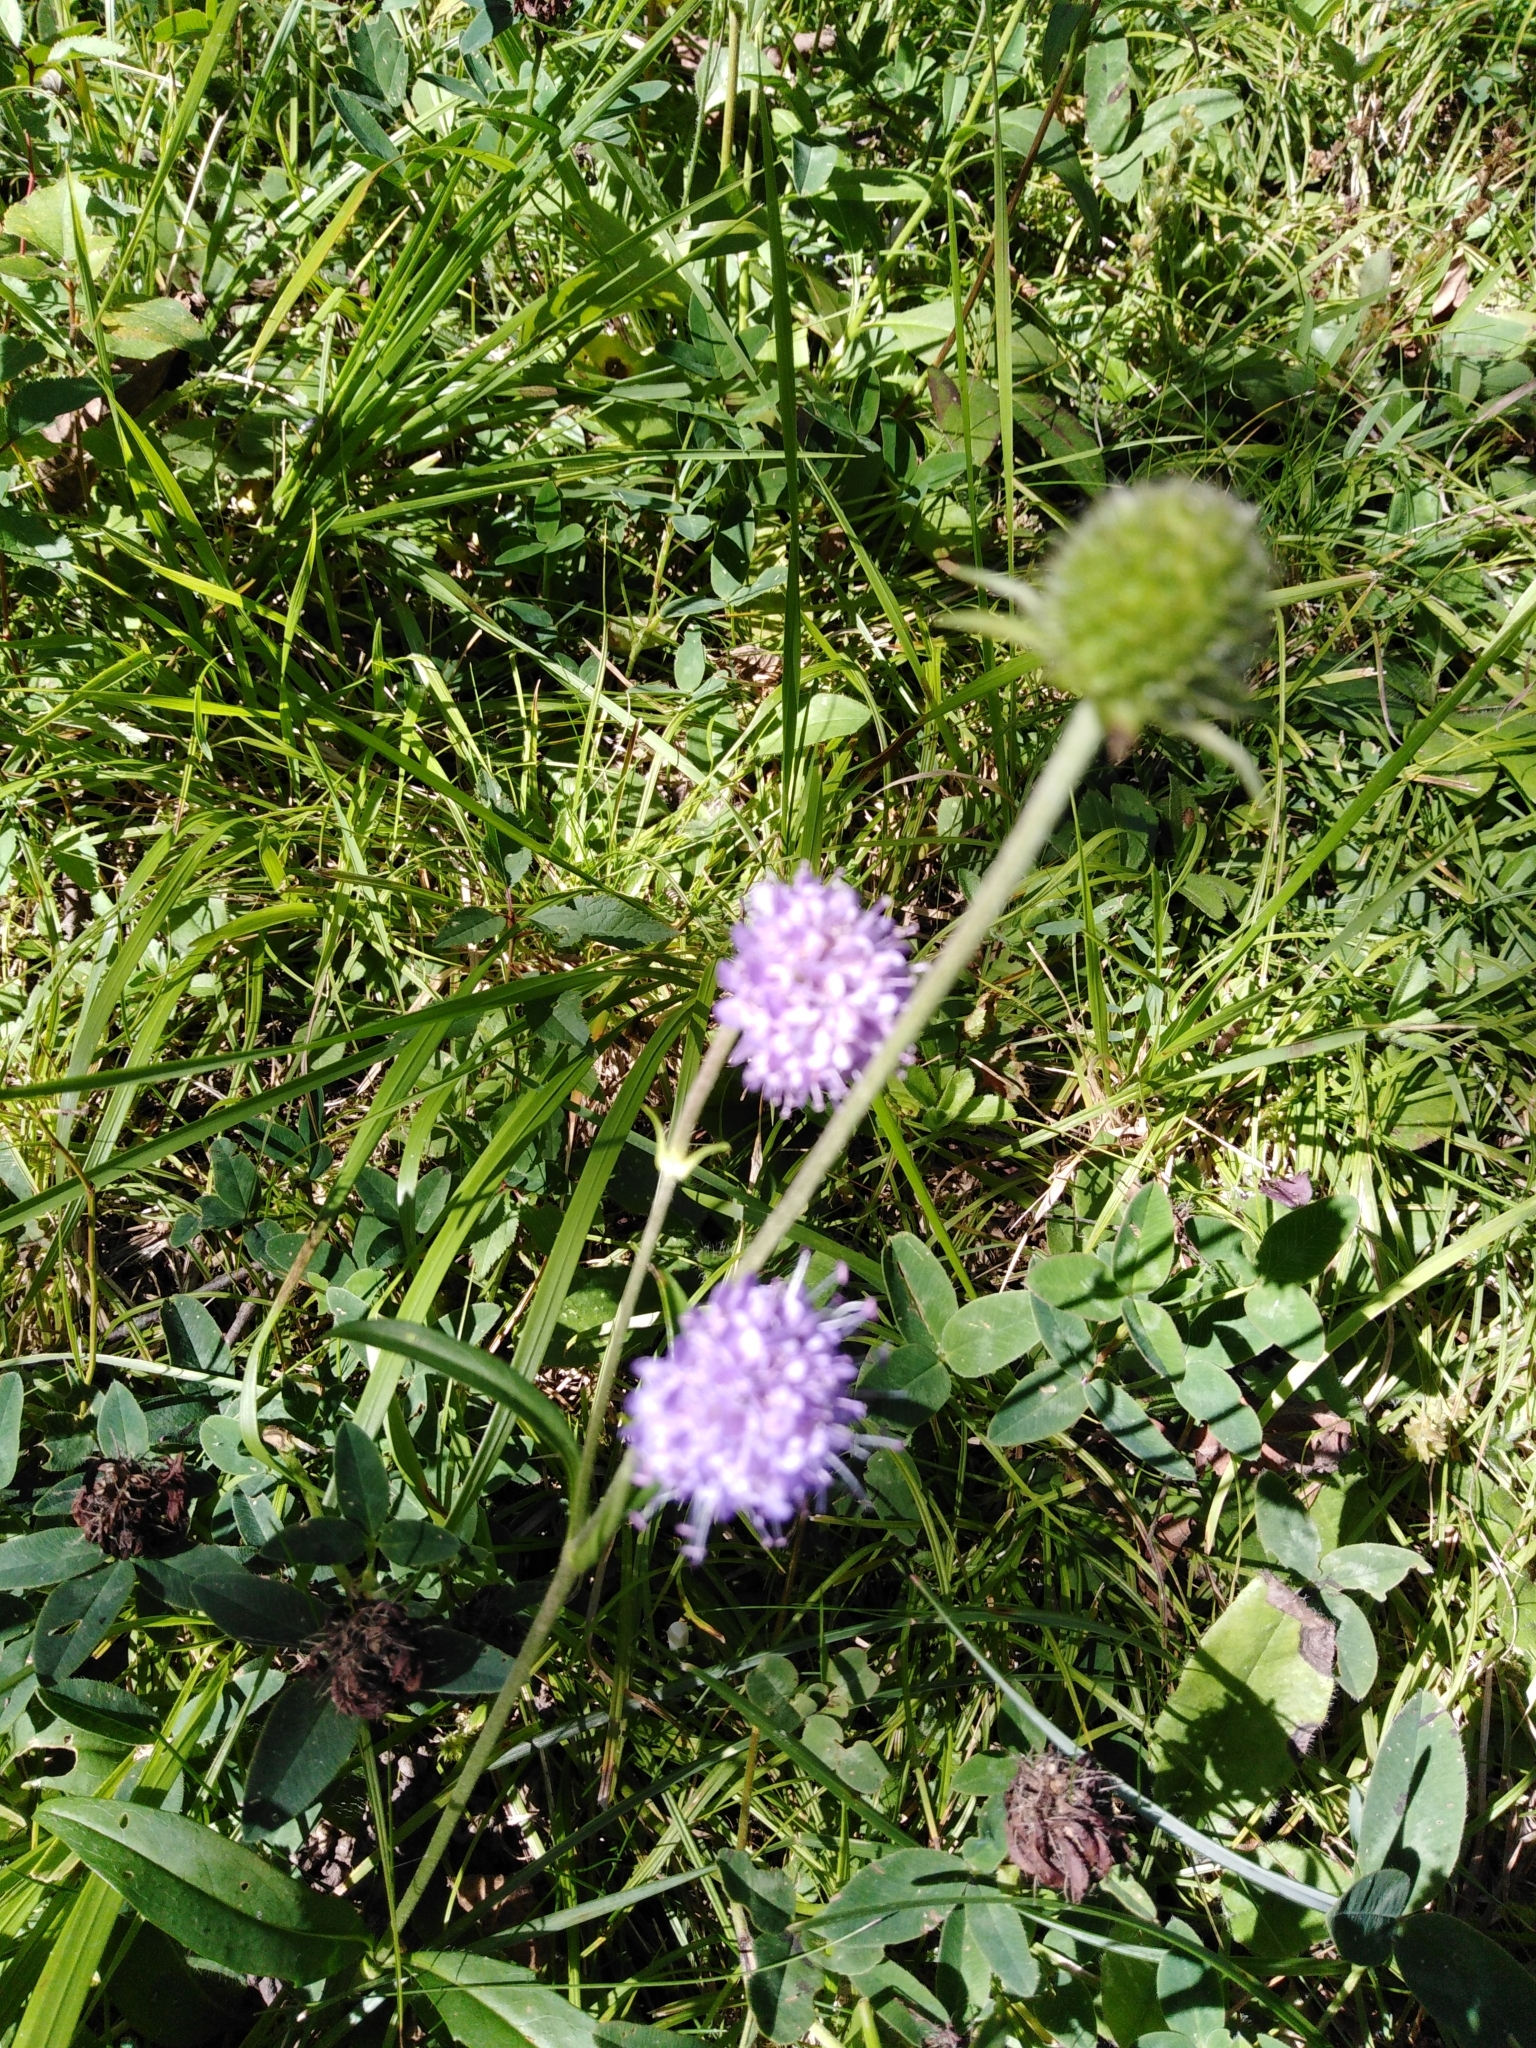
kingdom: Plantae
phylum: Tracheophyta
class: Magnoliopsida
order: Dipsacales
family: Caprifoliaceae
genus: Succisa
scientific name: Succisa pratensis
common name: Devil's-bit
